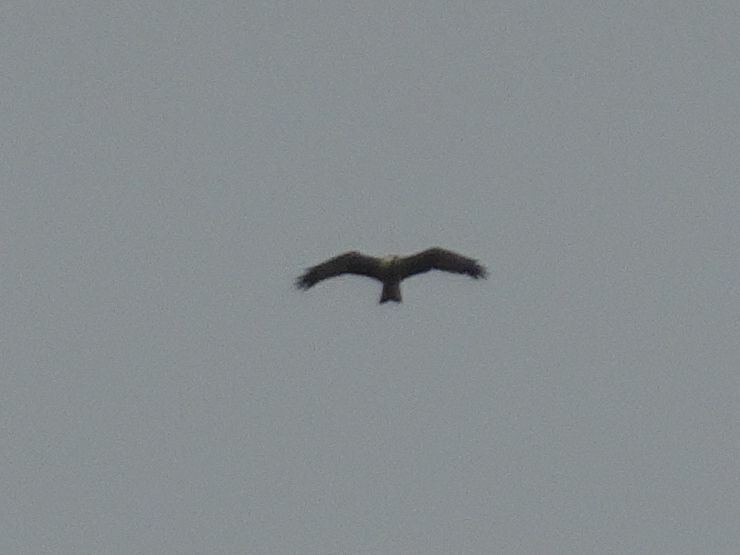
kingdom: Animalia
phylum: Chordata
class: Aves
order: Accipitriformes
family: Accipitridae
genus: Milvus
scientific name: Milvus migrans
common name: Black kite
